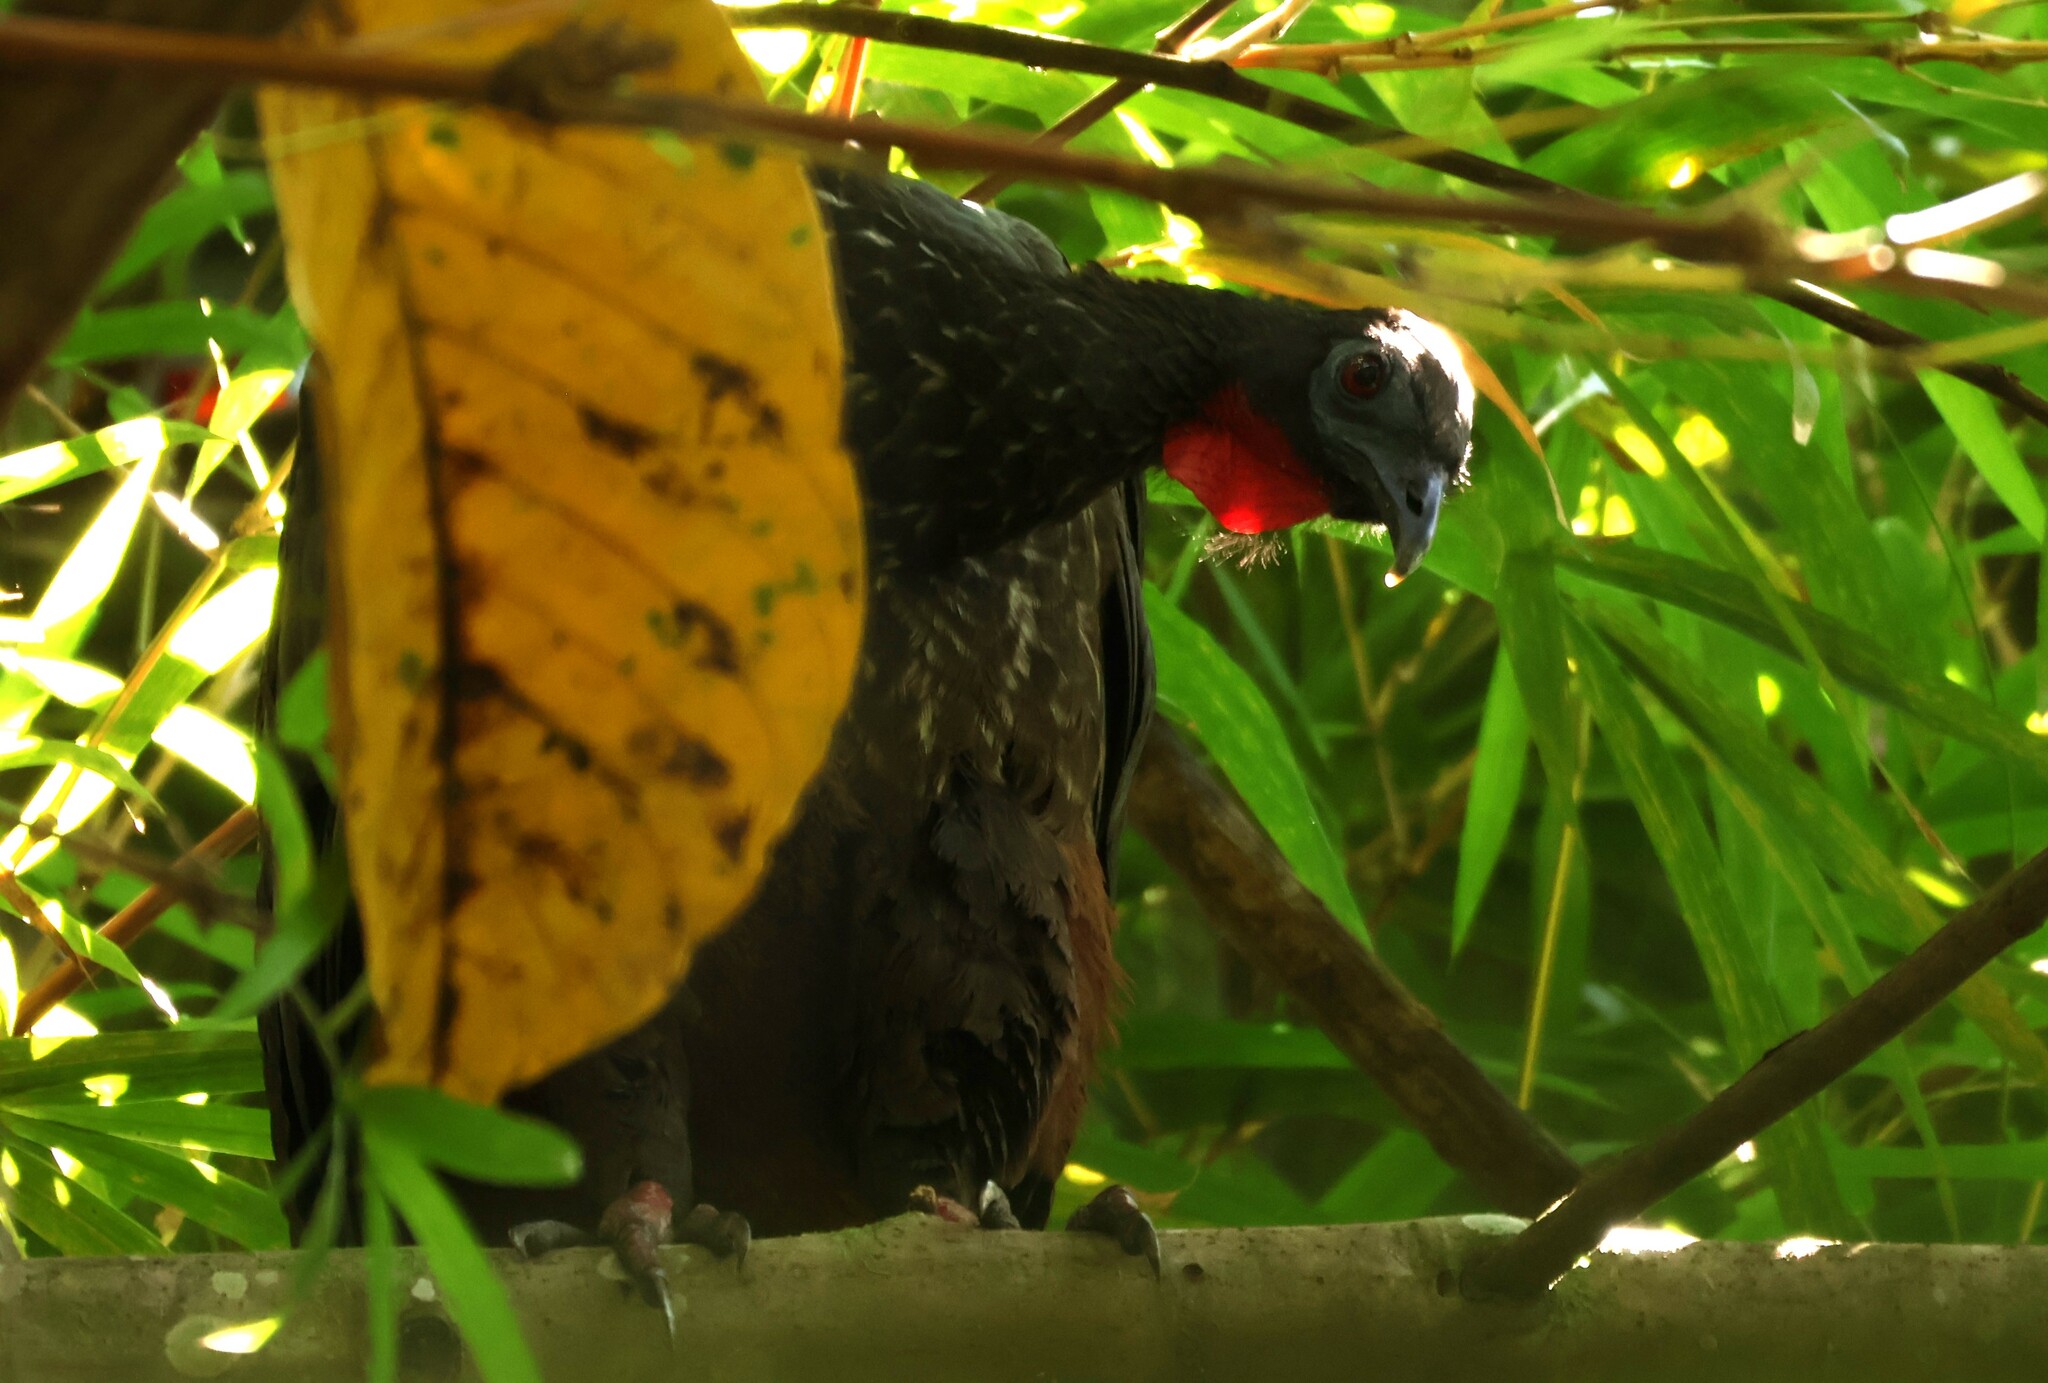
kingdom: Animalia
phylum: Chordata
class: Aves
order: Galliformes
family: Cracidae
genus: Penelope
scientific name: Penelope purpurascens
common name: Crested guan
